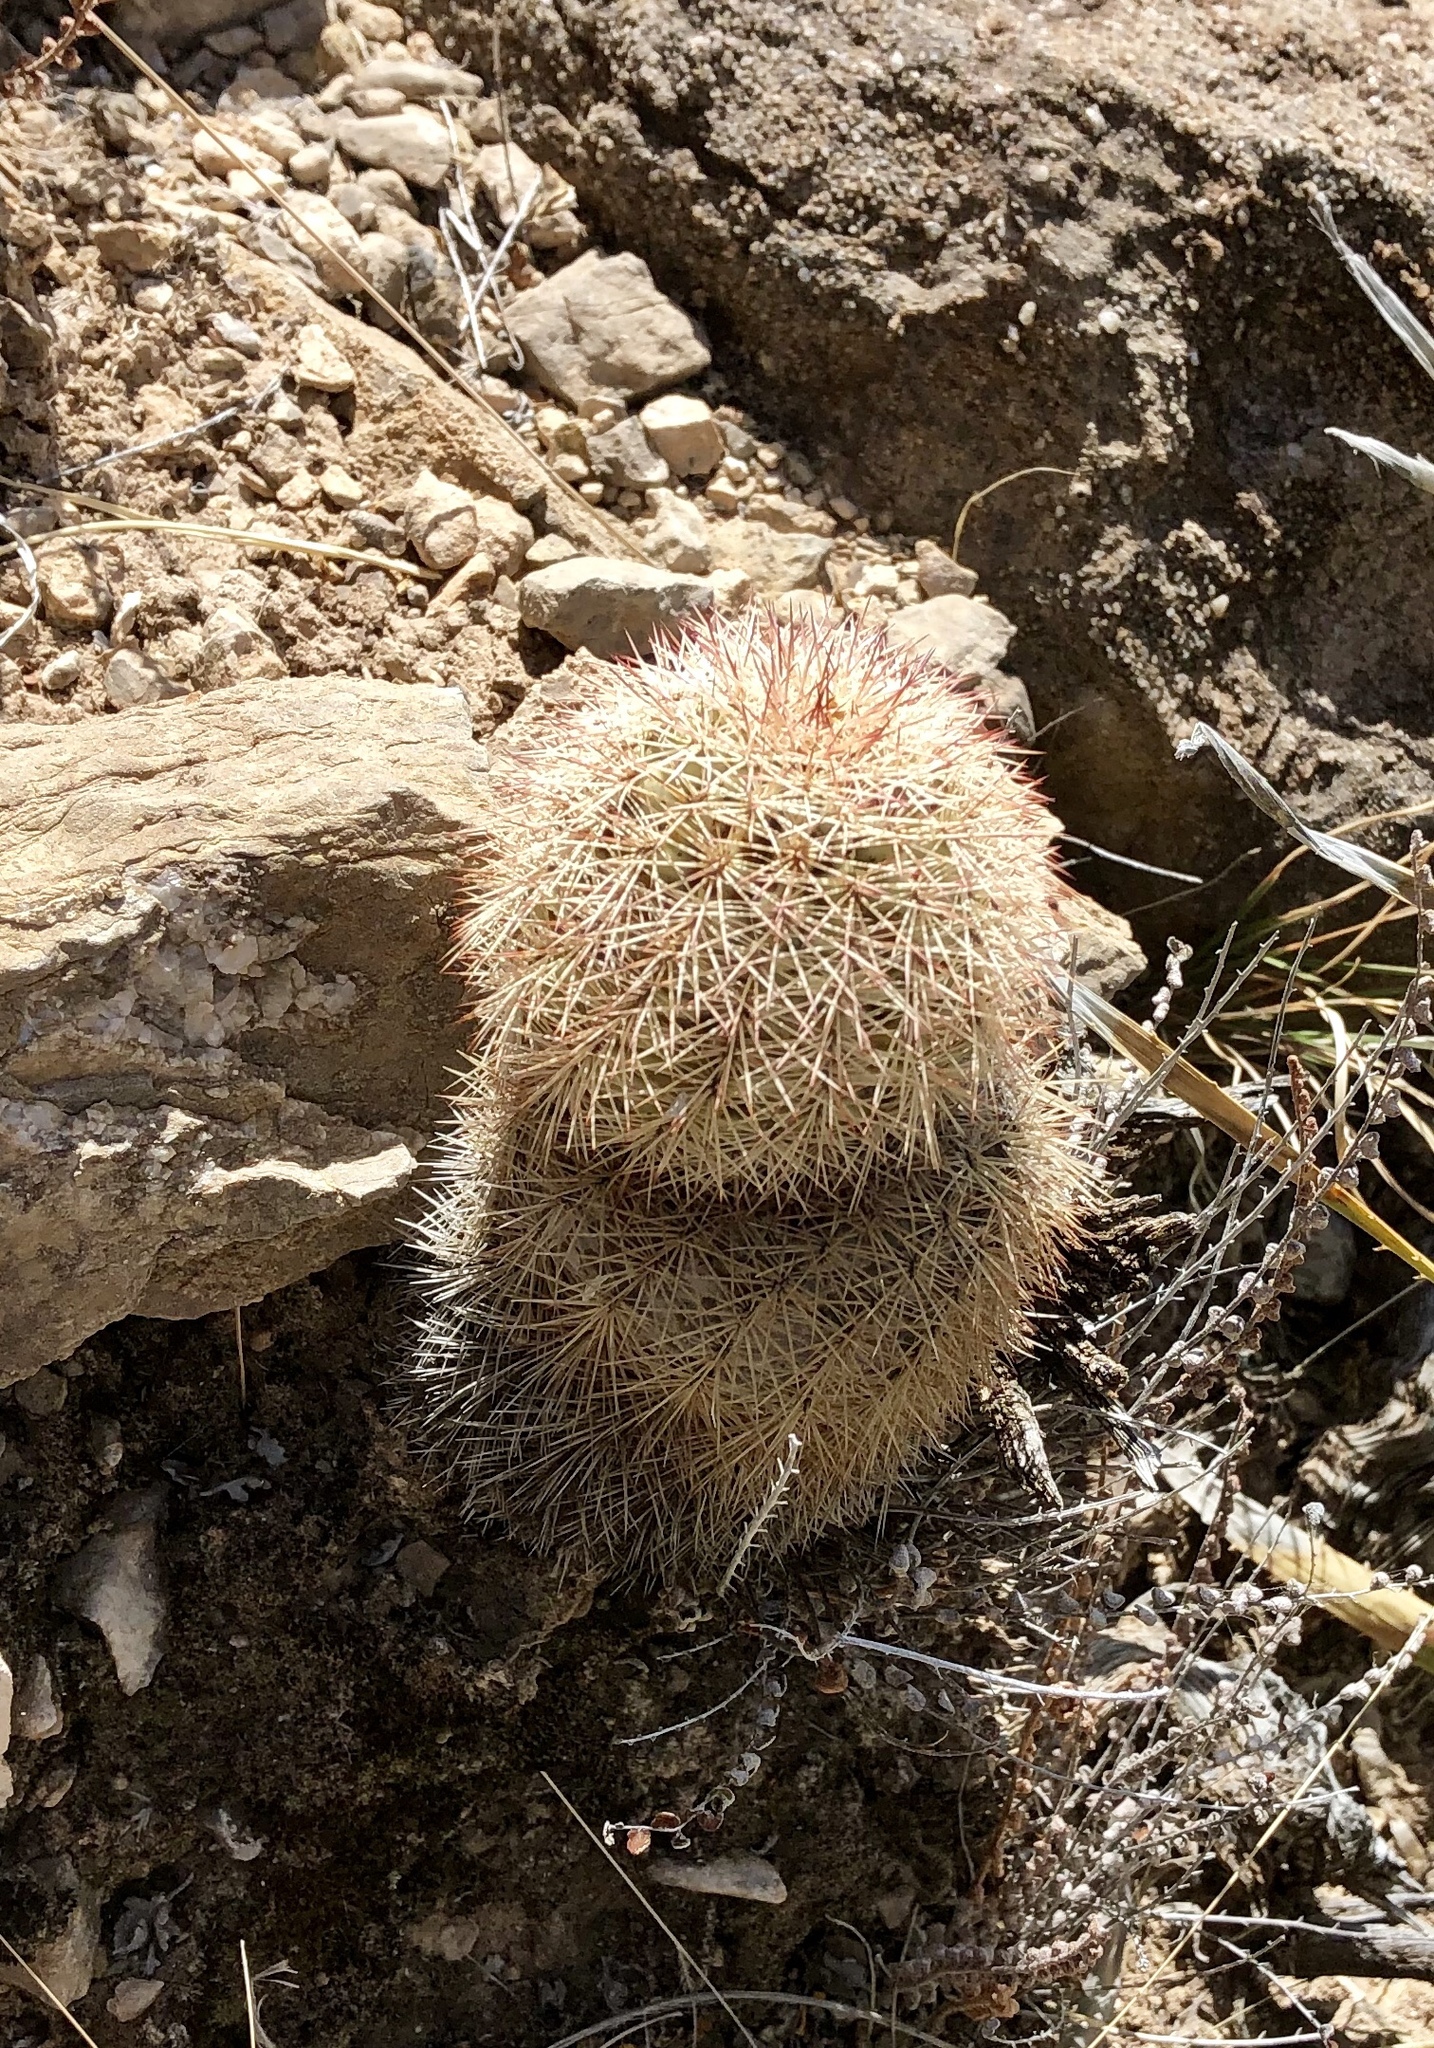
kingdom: Plantae
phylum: Tracheophyta
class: Magnoliopsida
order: Caryophyllales
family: Cactaceae
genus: Echinocereus
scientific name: Echinocereus dasyacanthus
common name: Spiny hedgehog cactus
